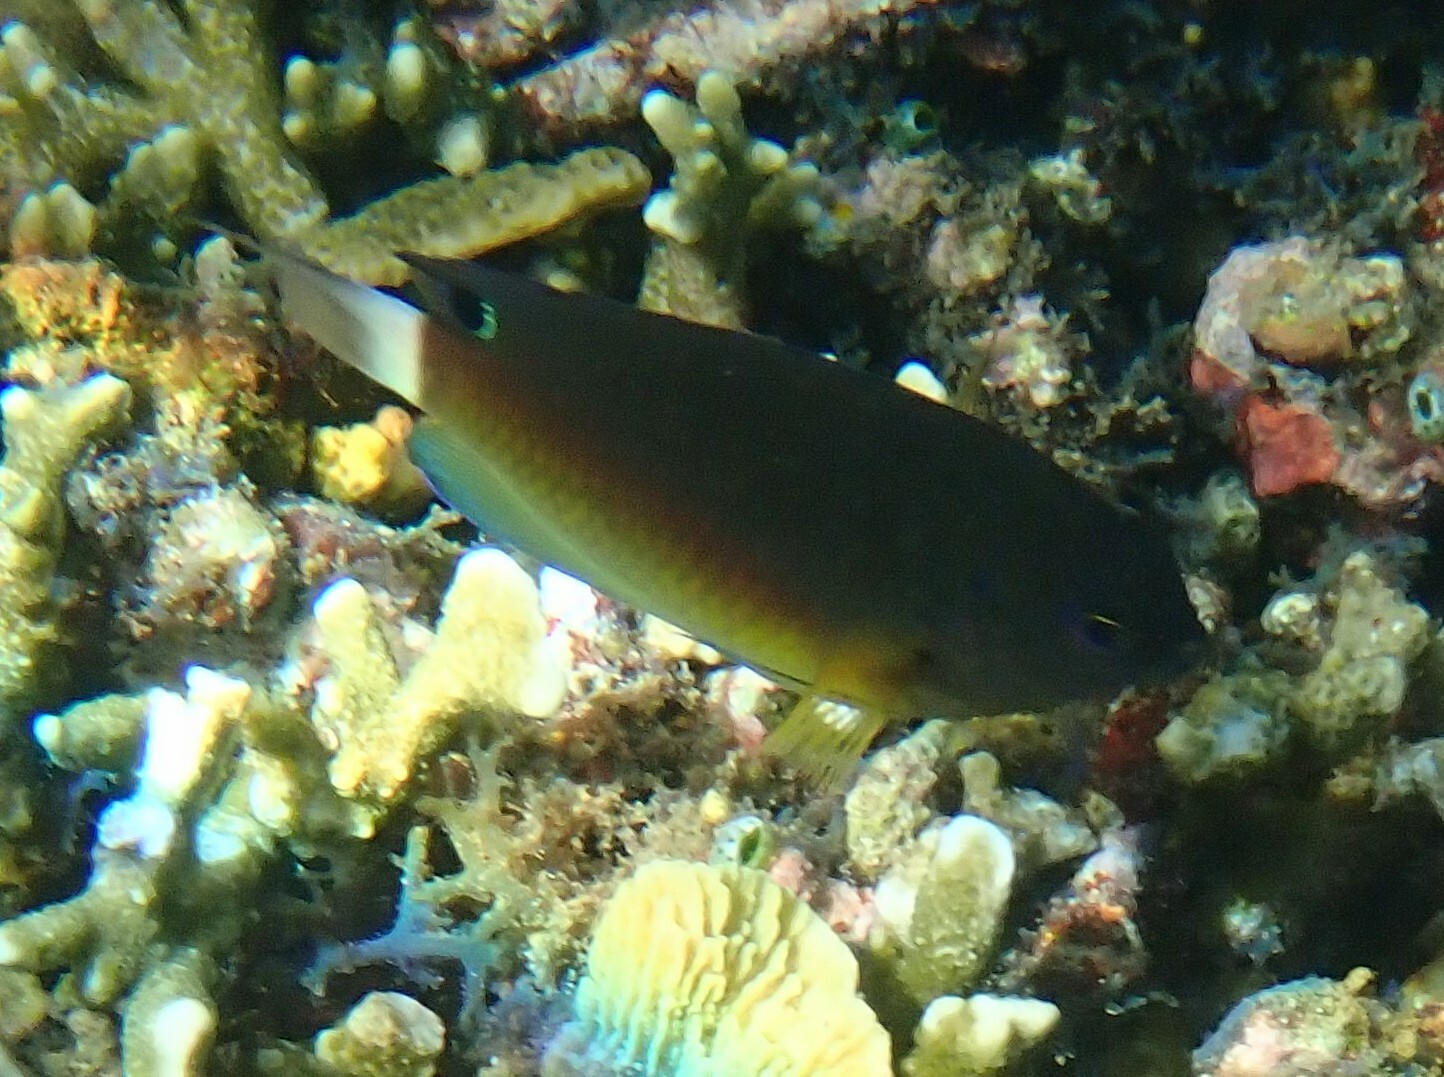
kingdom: Animalia
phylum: Chordata
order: Perciformes
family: Pomacentridae
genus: Pomacentrus
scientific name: Pomacentrus bankanensis
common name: Speckled damsel
